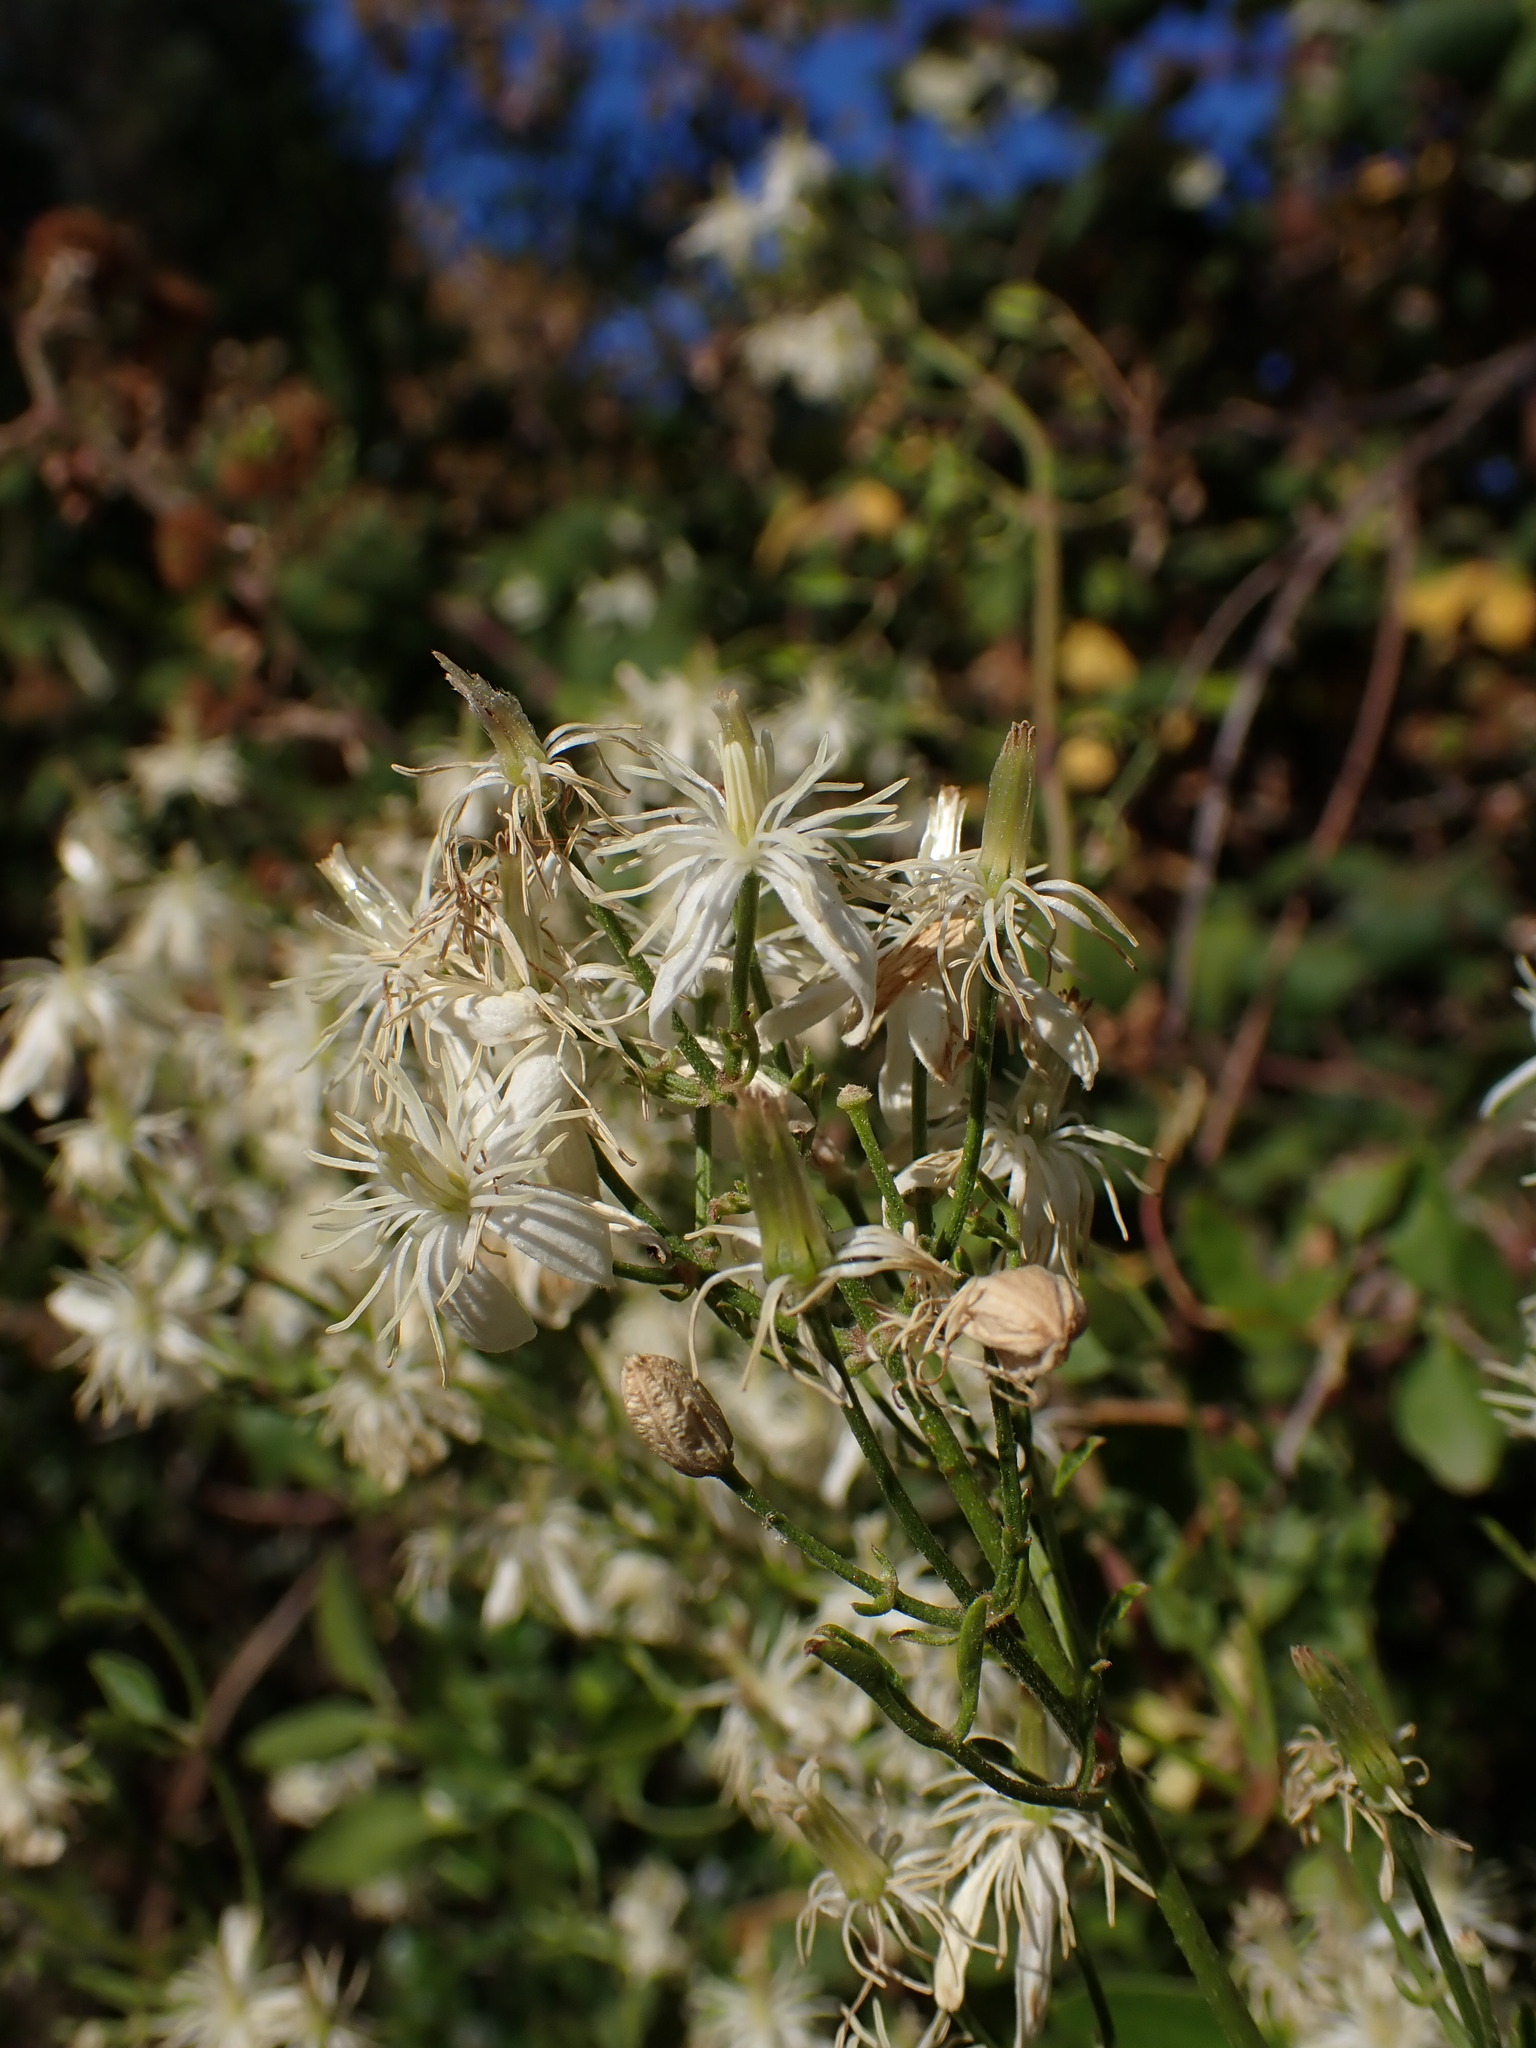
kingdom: Plantae
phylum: Tracheophyta
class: Magnoliopsida
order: Ranunculales
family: Ranunculaceae
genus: Clematis
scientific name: Clematis flammula
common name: Virgin's-bower
